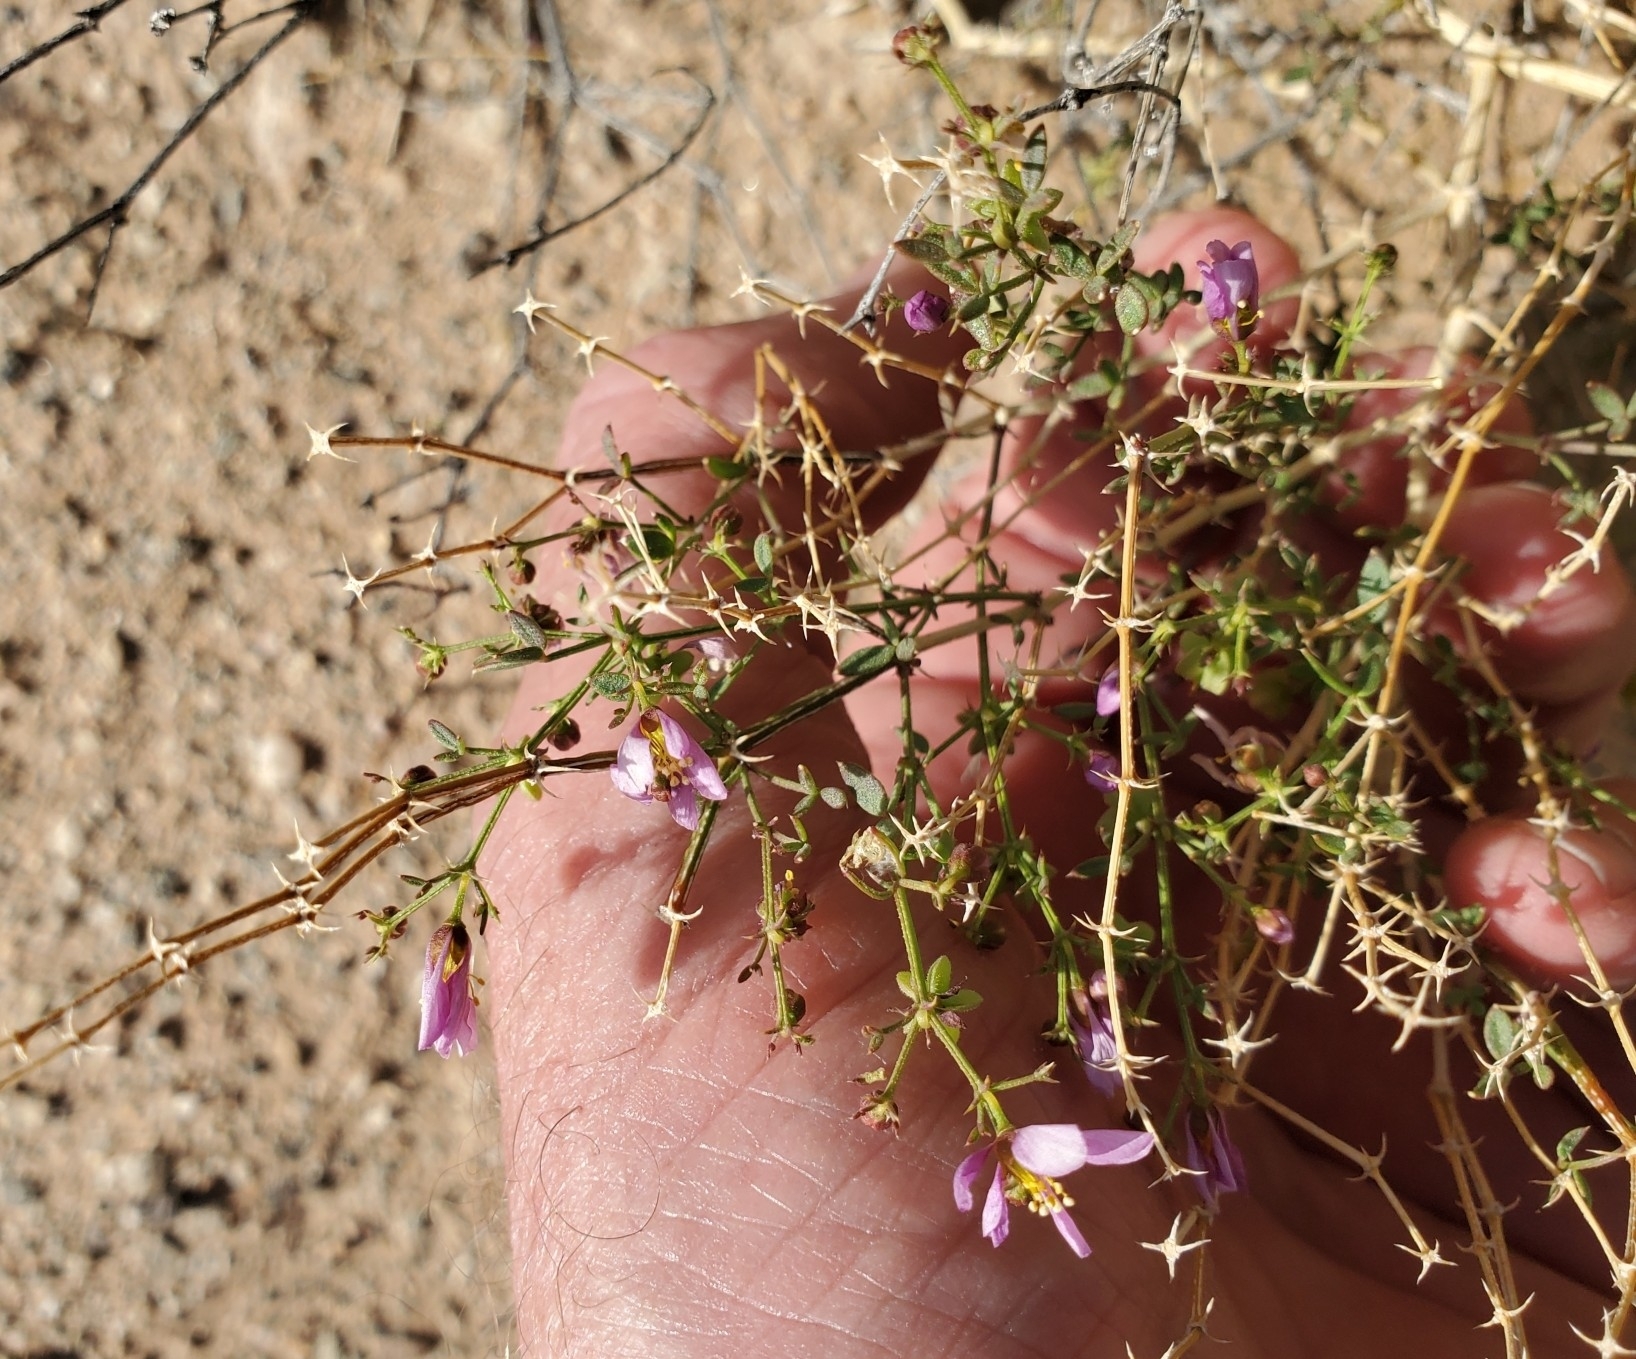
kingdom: Plantae
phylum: Tracheophyta
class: Magnoliopsida
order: Zygophyllales
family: Zygophyllaceae
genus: Fagonia
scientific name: Fagonia laevis
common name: California fagonbush
